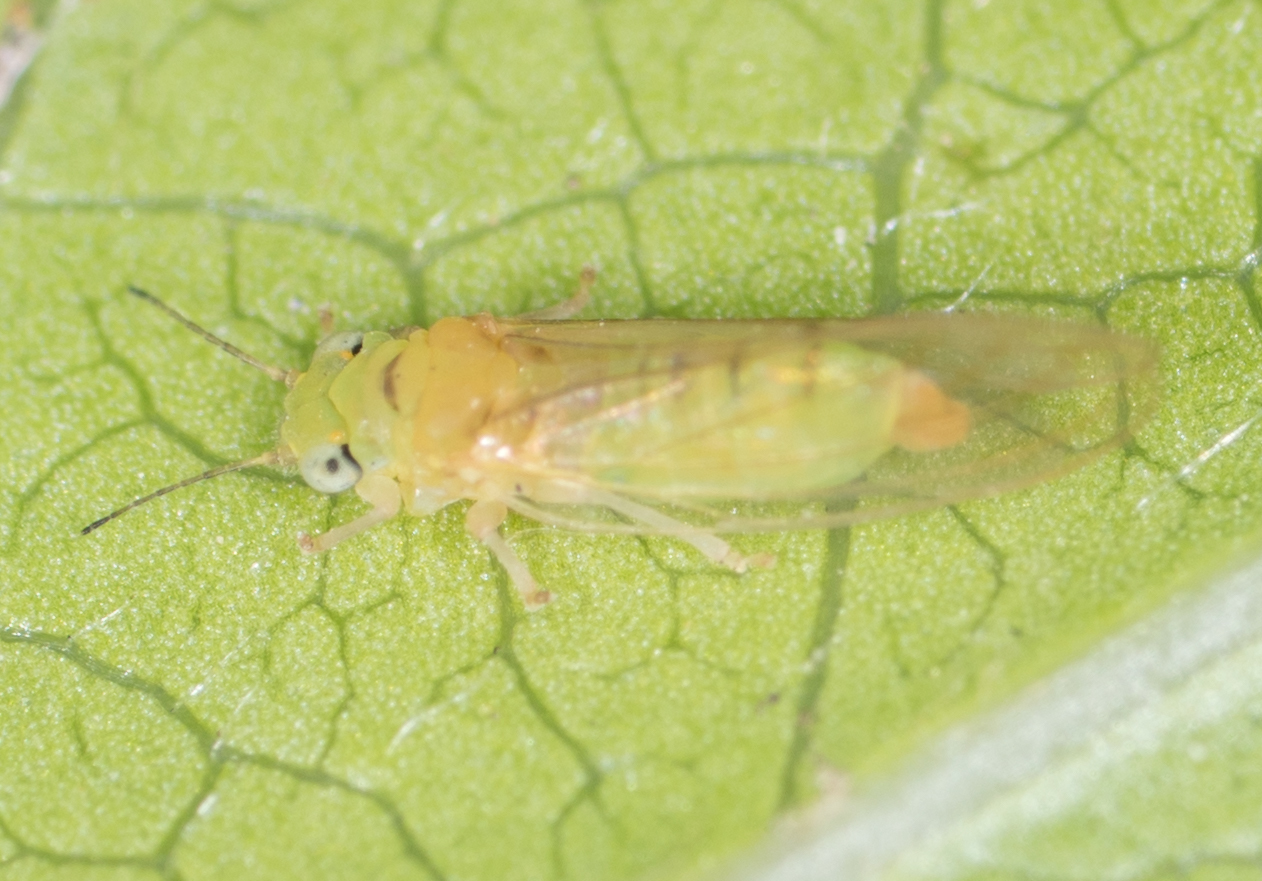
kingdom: Animalia
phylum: Arthropoda
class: Insecta
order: Hemiptera
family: Aphalaridae
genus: Eucalyptolyma
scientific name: Eucalyptolyma maideni
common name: Spotted gum lerp psyllid
